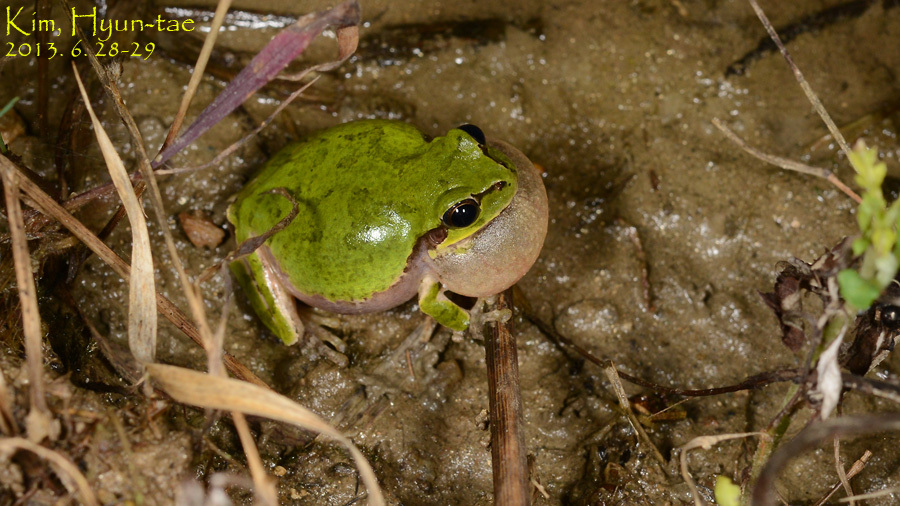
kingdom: Animalia
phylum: Chordata
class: Amphibia
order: Anura
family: Hylidae
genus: Dryophytes
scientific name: Dryophytes japonicus
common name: Japanese treefrog
